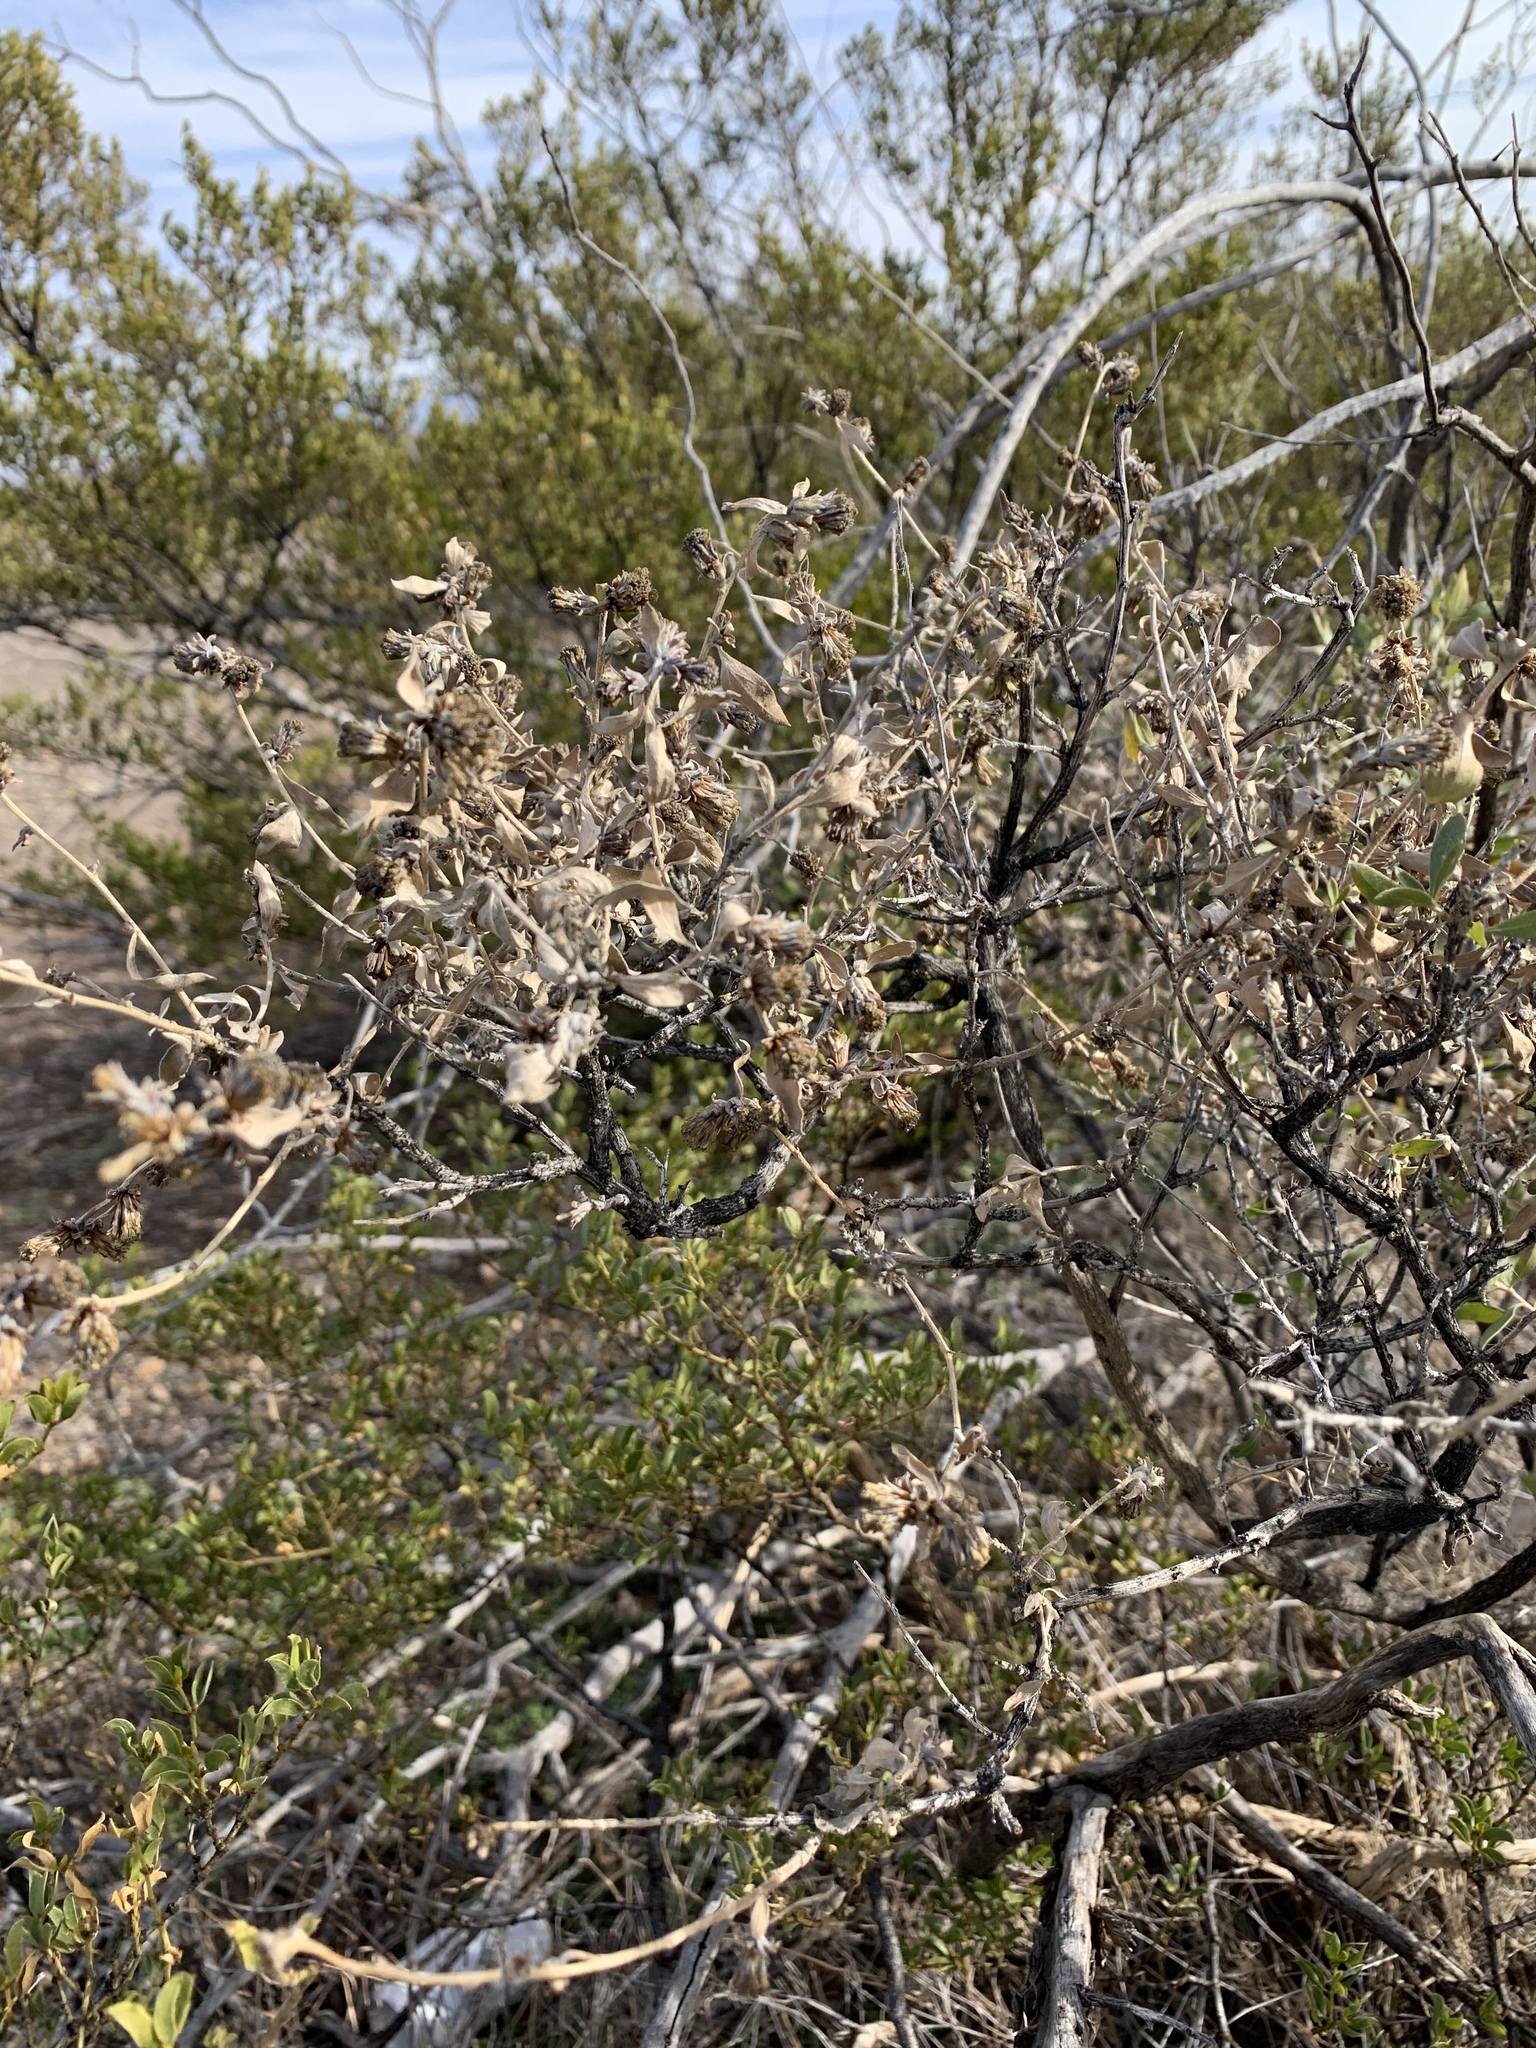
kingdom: Plantae
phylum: Tracheophyta
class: Magnoliopsida
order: Asterales
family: Asteraceae
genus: Flourensia
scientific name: Flourensia cernua
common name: Varnishbush
